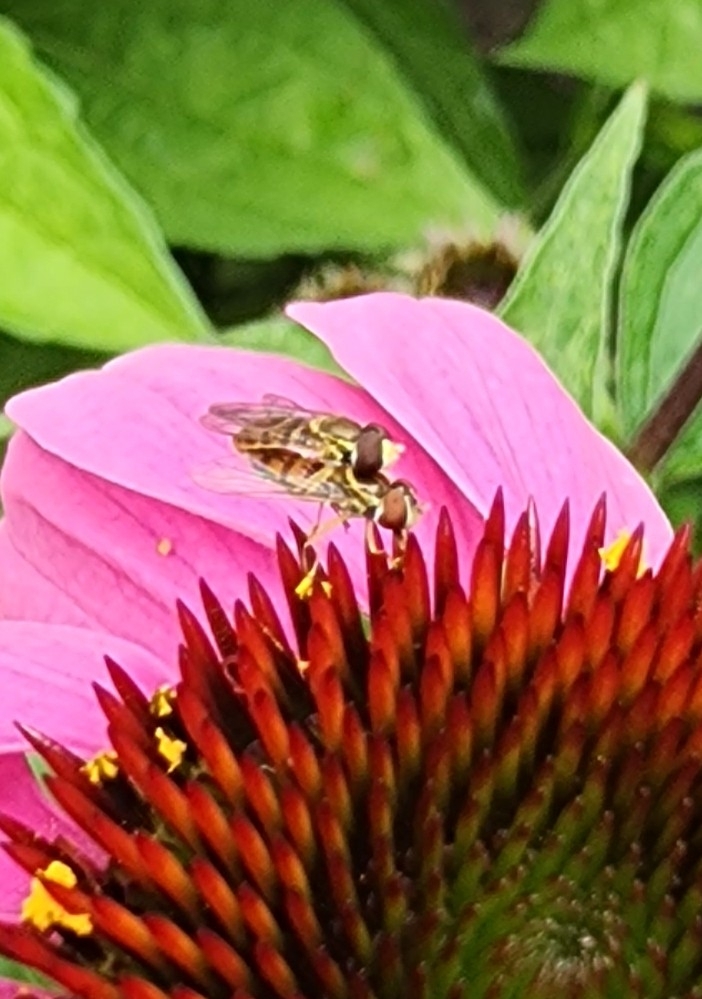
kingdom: Animalia
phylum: Arthropoda
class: Insecta
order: Diptera
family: Syrphidae
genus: Toxomerus
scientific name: Toxomerus marginatus
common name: Syrphid fly
